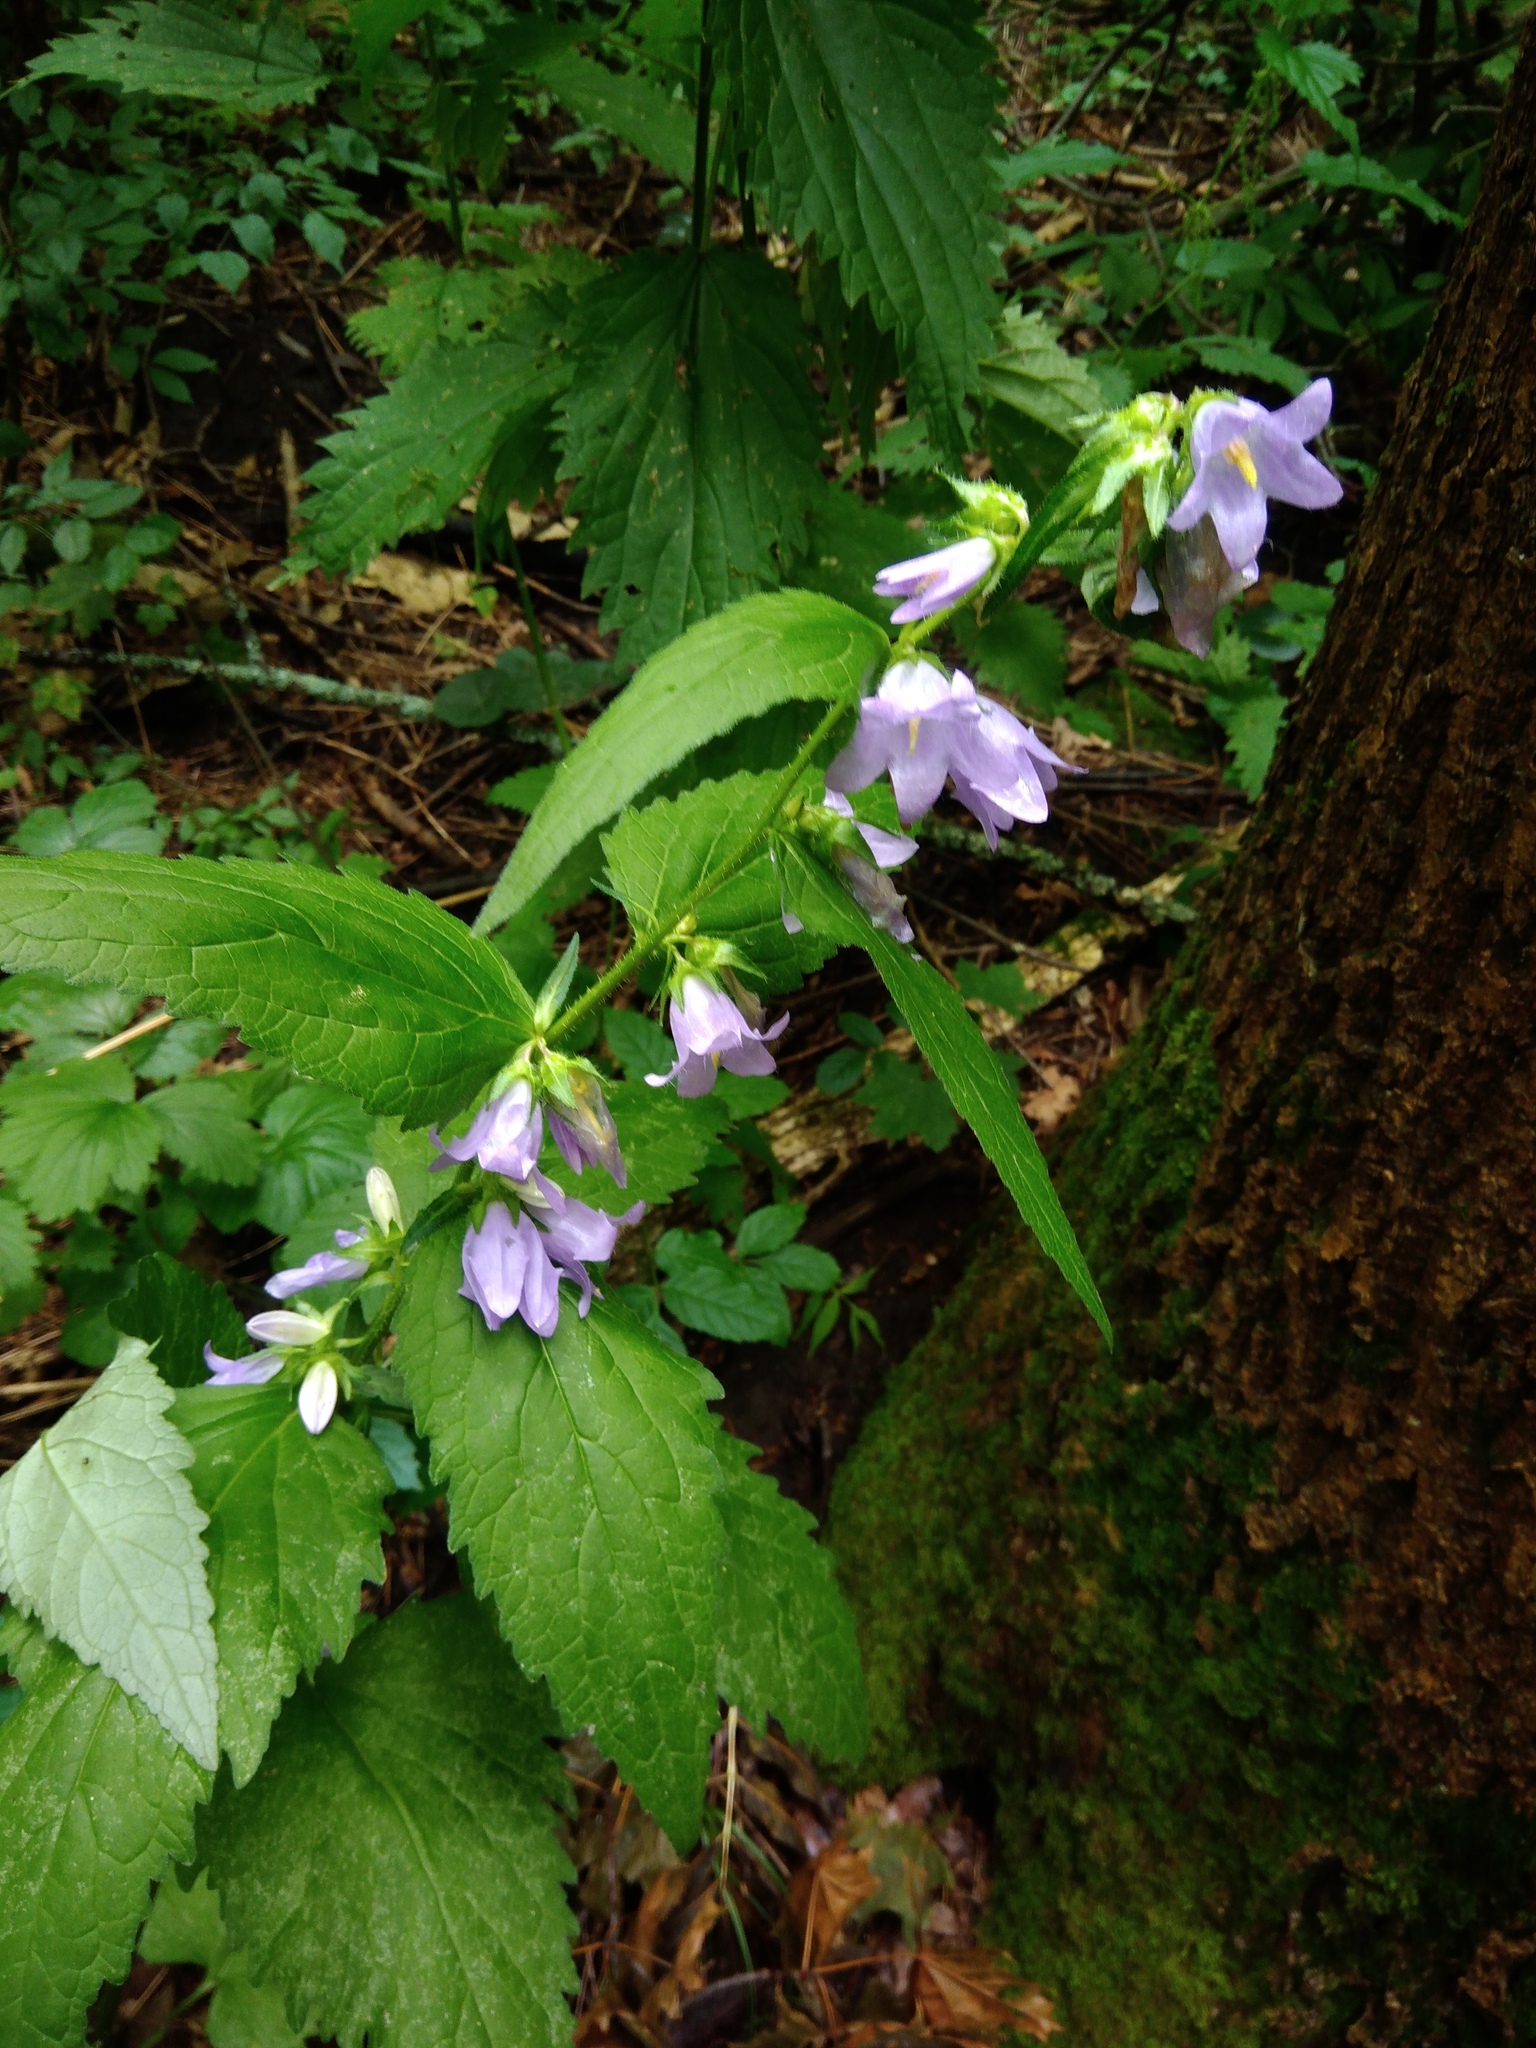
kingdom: Plantae
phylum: Tracheophyta
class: Magnoliopsida
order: Asterales
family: Campanulaceae
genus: Campanula
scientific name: Campanula trachelium
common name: Nettle-leaved bellflower
